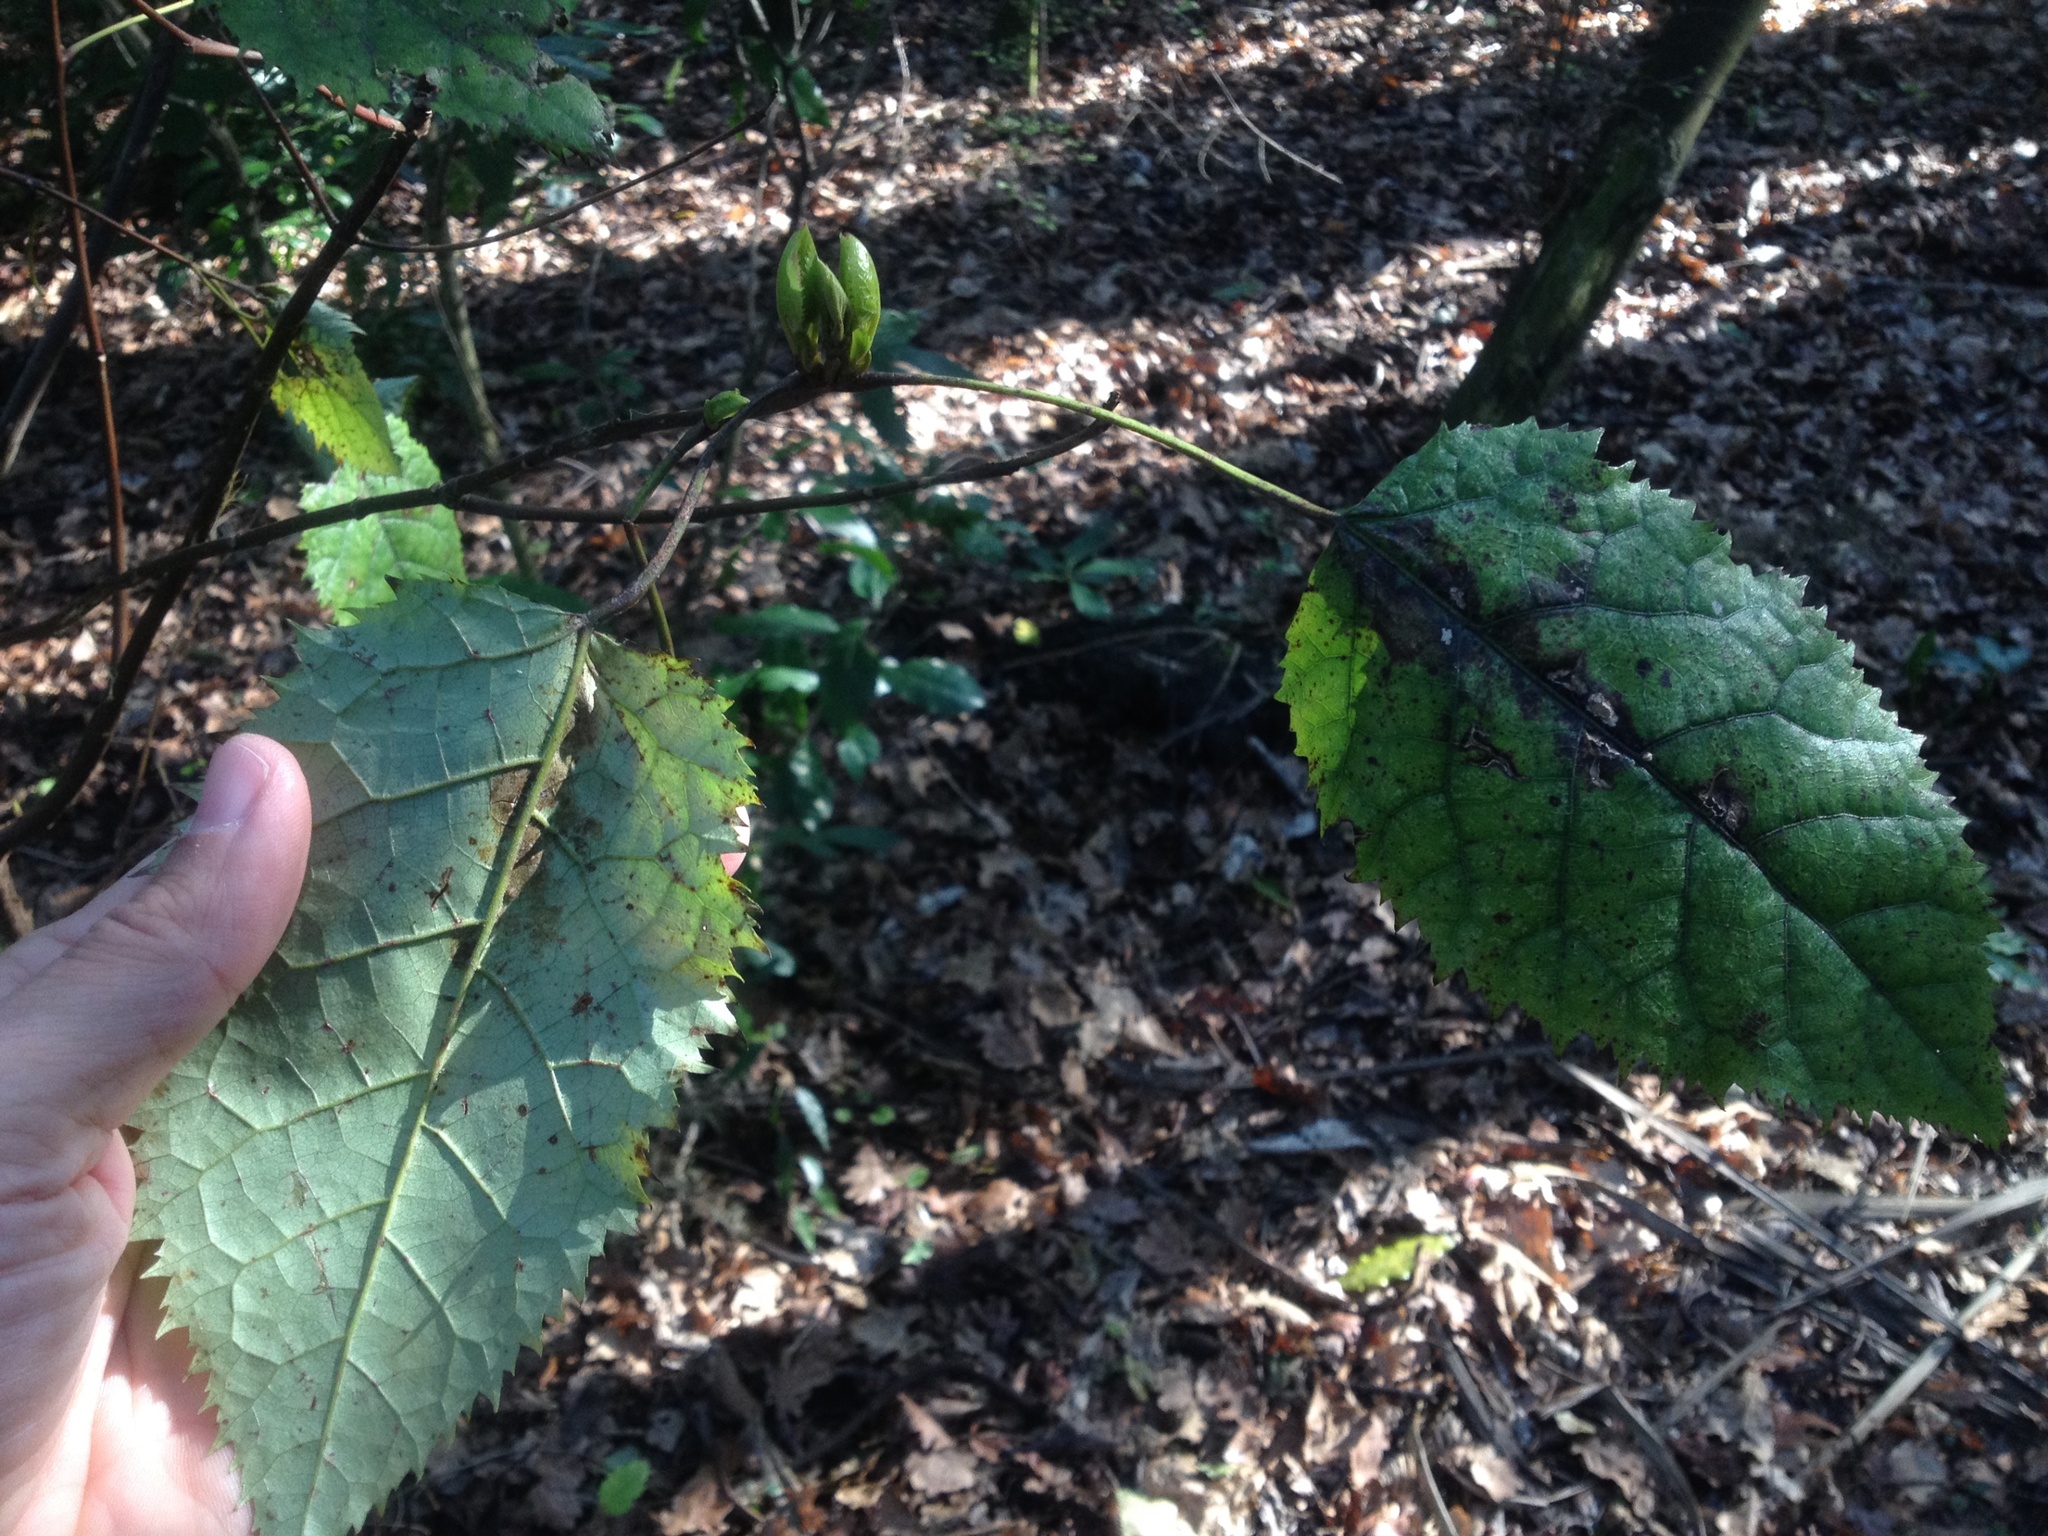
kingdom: Plantae
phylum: Tracheophyta
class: Magnoliopsida
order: Oxalidales
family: Elaeocarpaceae
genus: Aristotelia
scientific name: Aristotelia serrata
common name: New zealand wineberry
